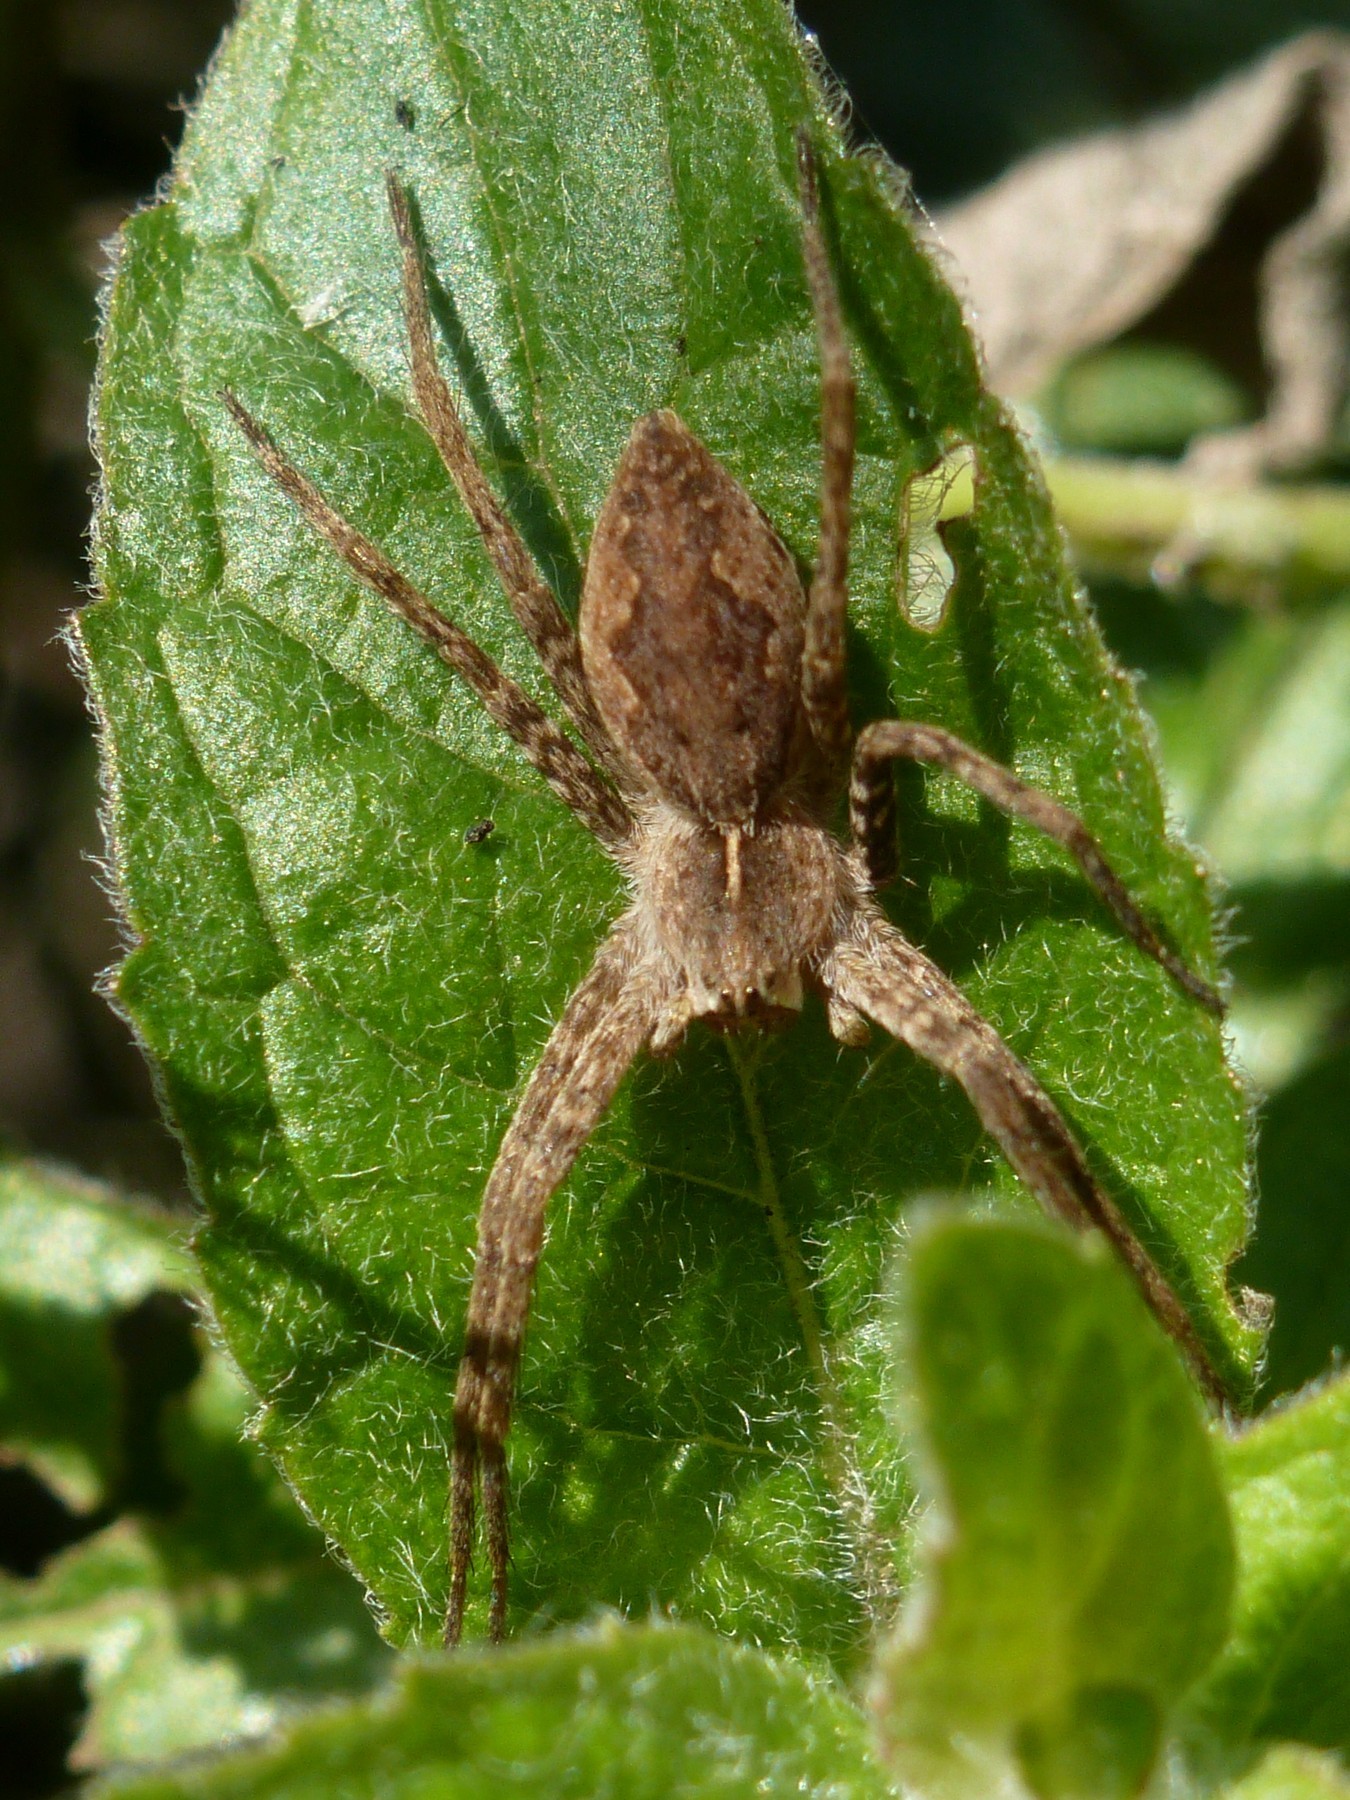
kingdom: Animalia
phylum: Arthropoda
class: Arachnida
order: Araneae
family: Pisauridae
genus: Pisaura
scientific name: Pisaura
